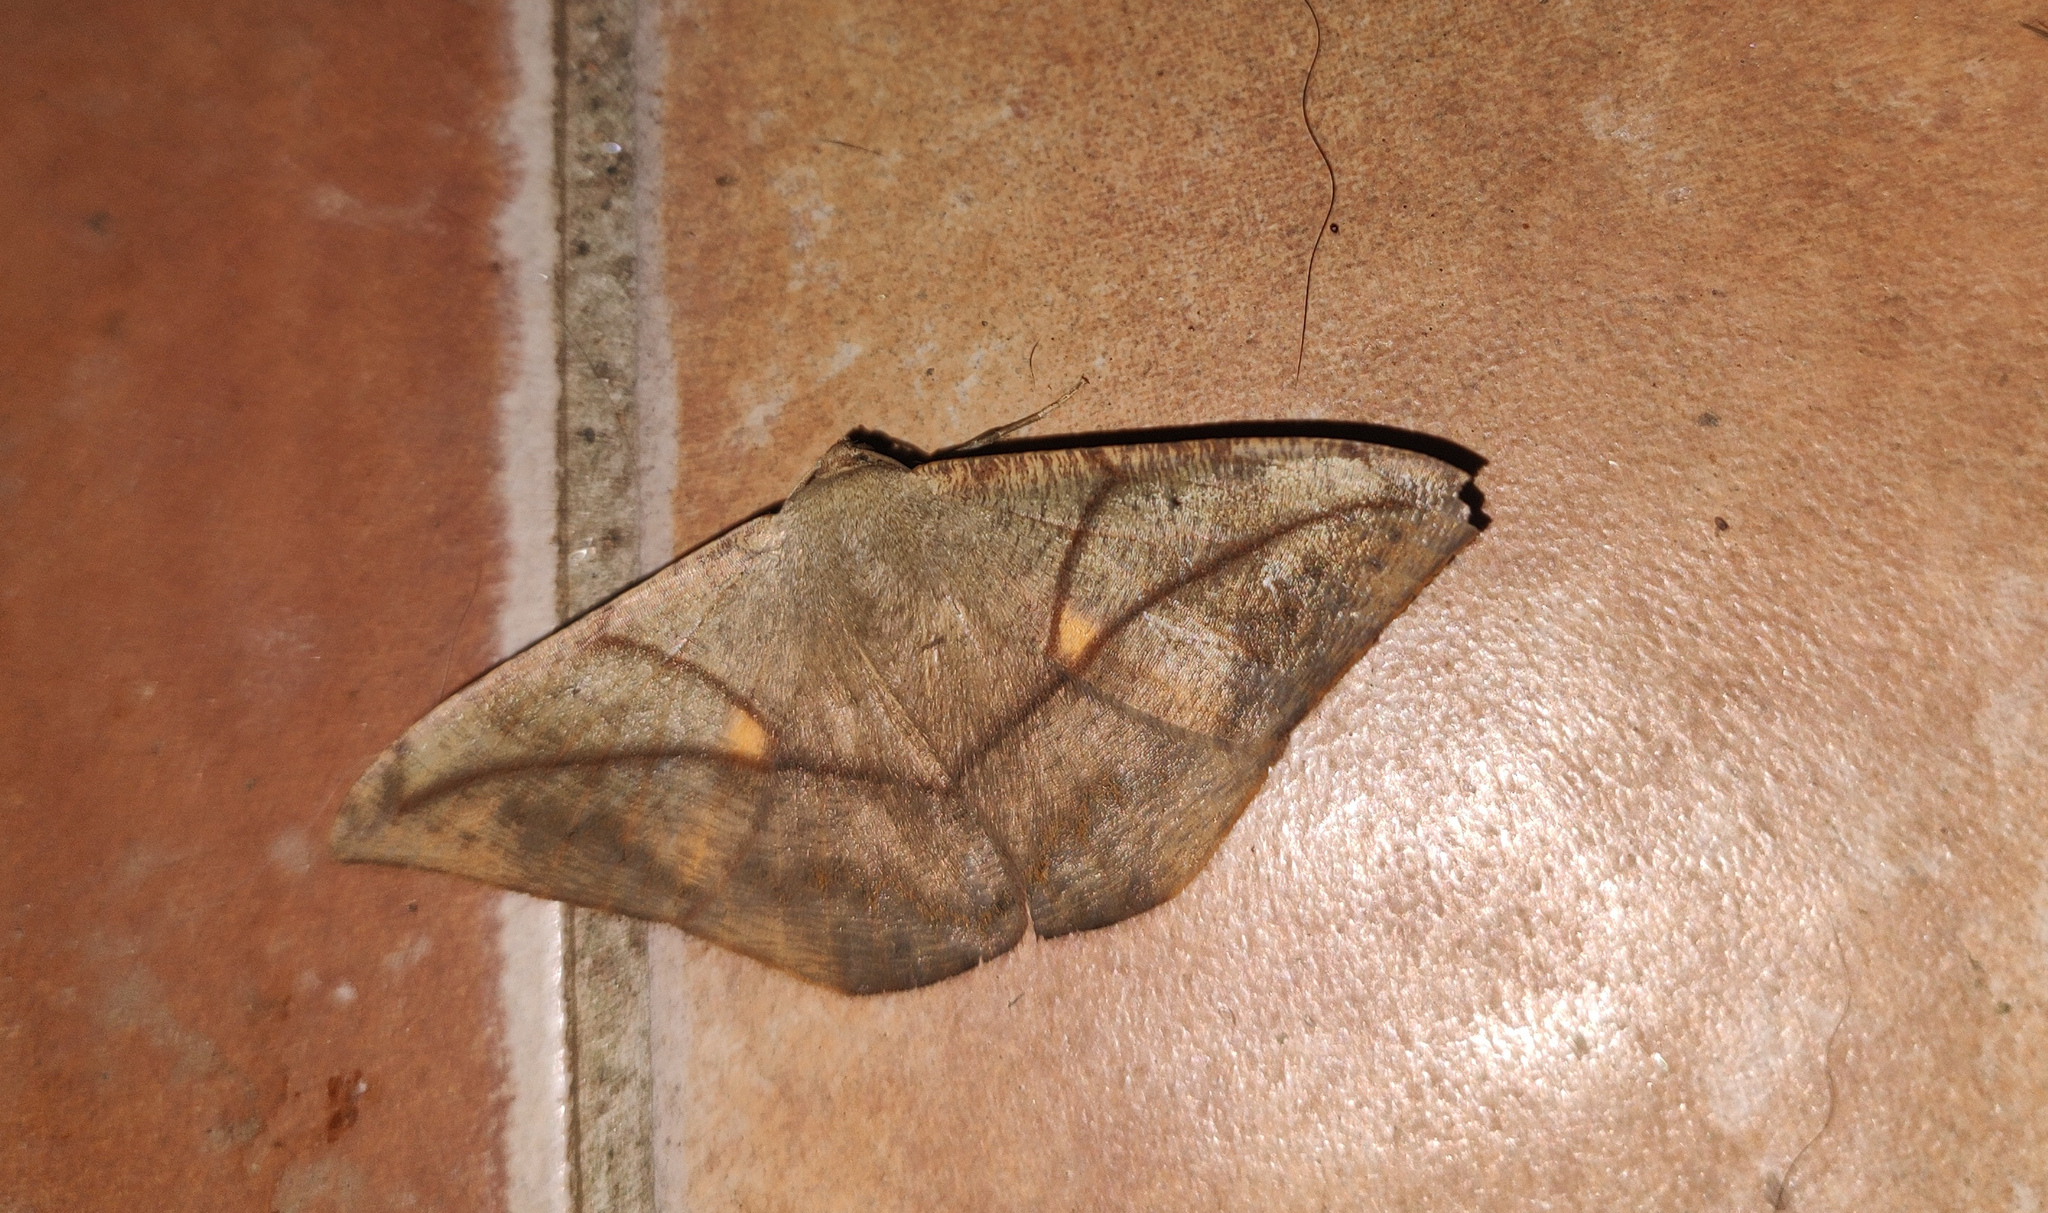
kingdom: Animalia
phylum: Arthropoda
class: Insecta
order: Lepidoptera
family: Geometridae
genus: Oxydia
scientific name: Oxydia trychiata
